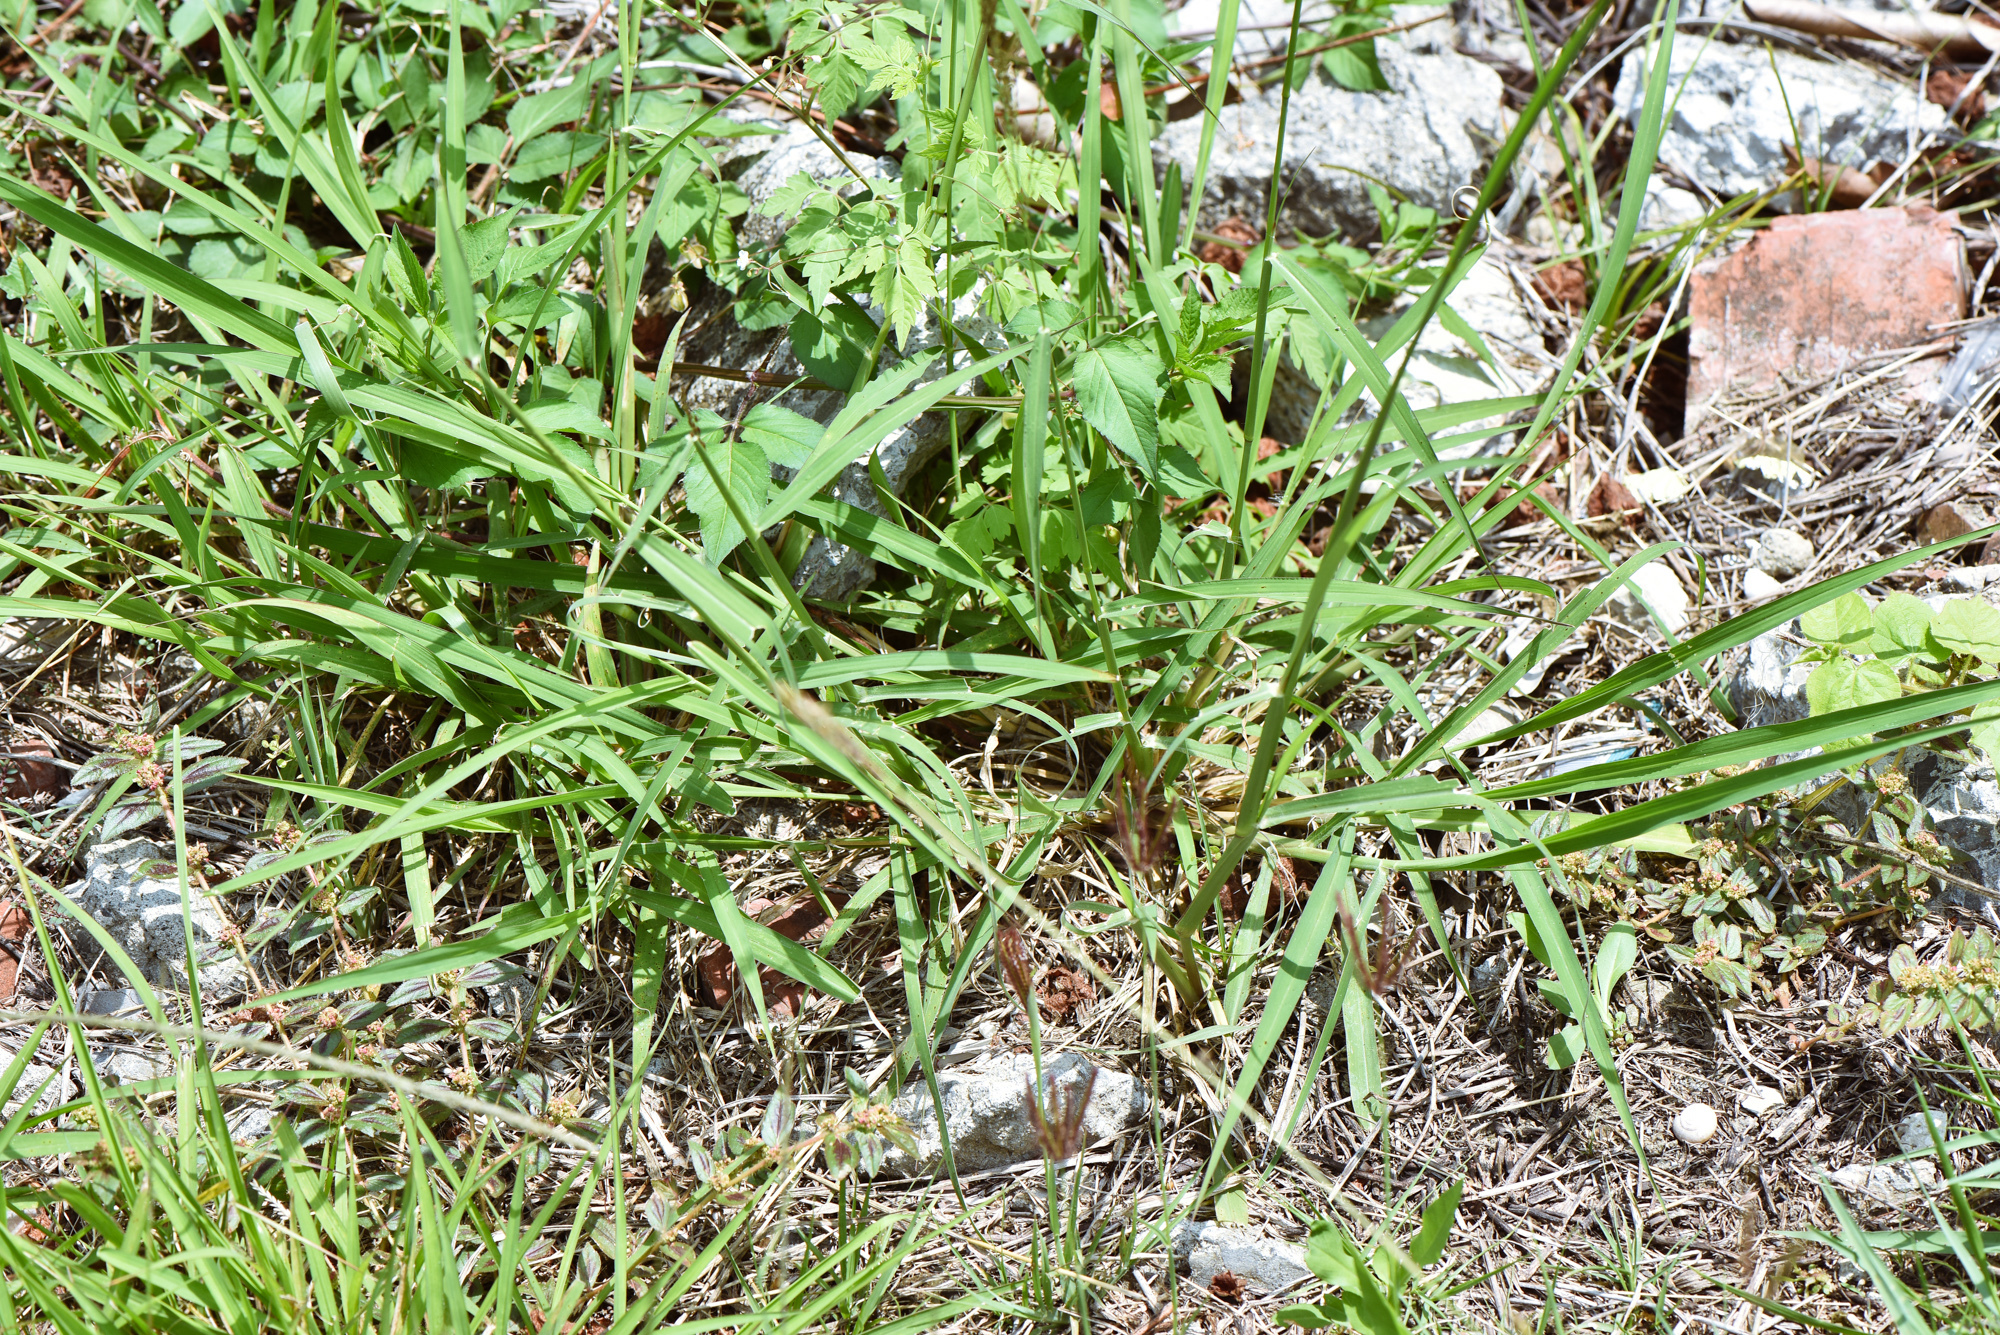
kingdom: Plantae
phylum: Tracheophyta
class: Liliopsida
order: Poales
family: Poaceae
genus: Megathyrsus
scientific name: Megathyrsus maximus
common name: Guineagrass
